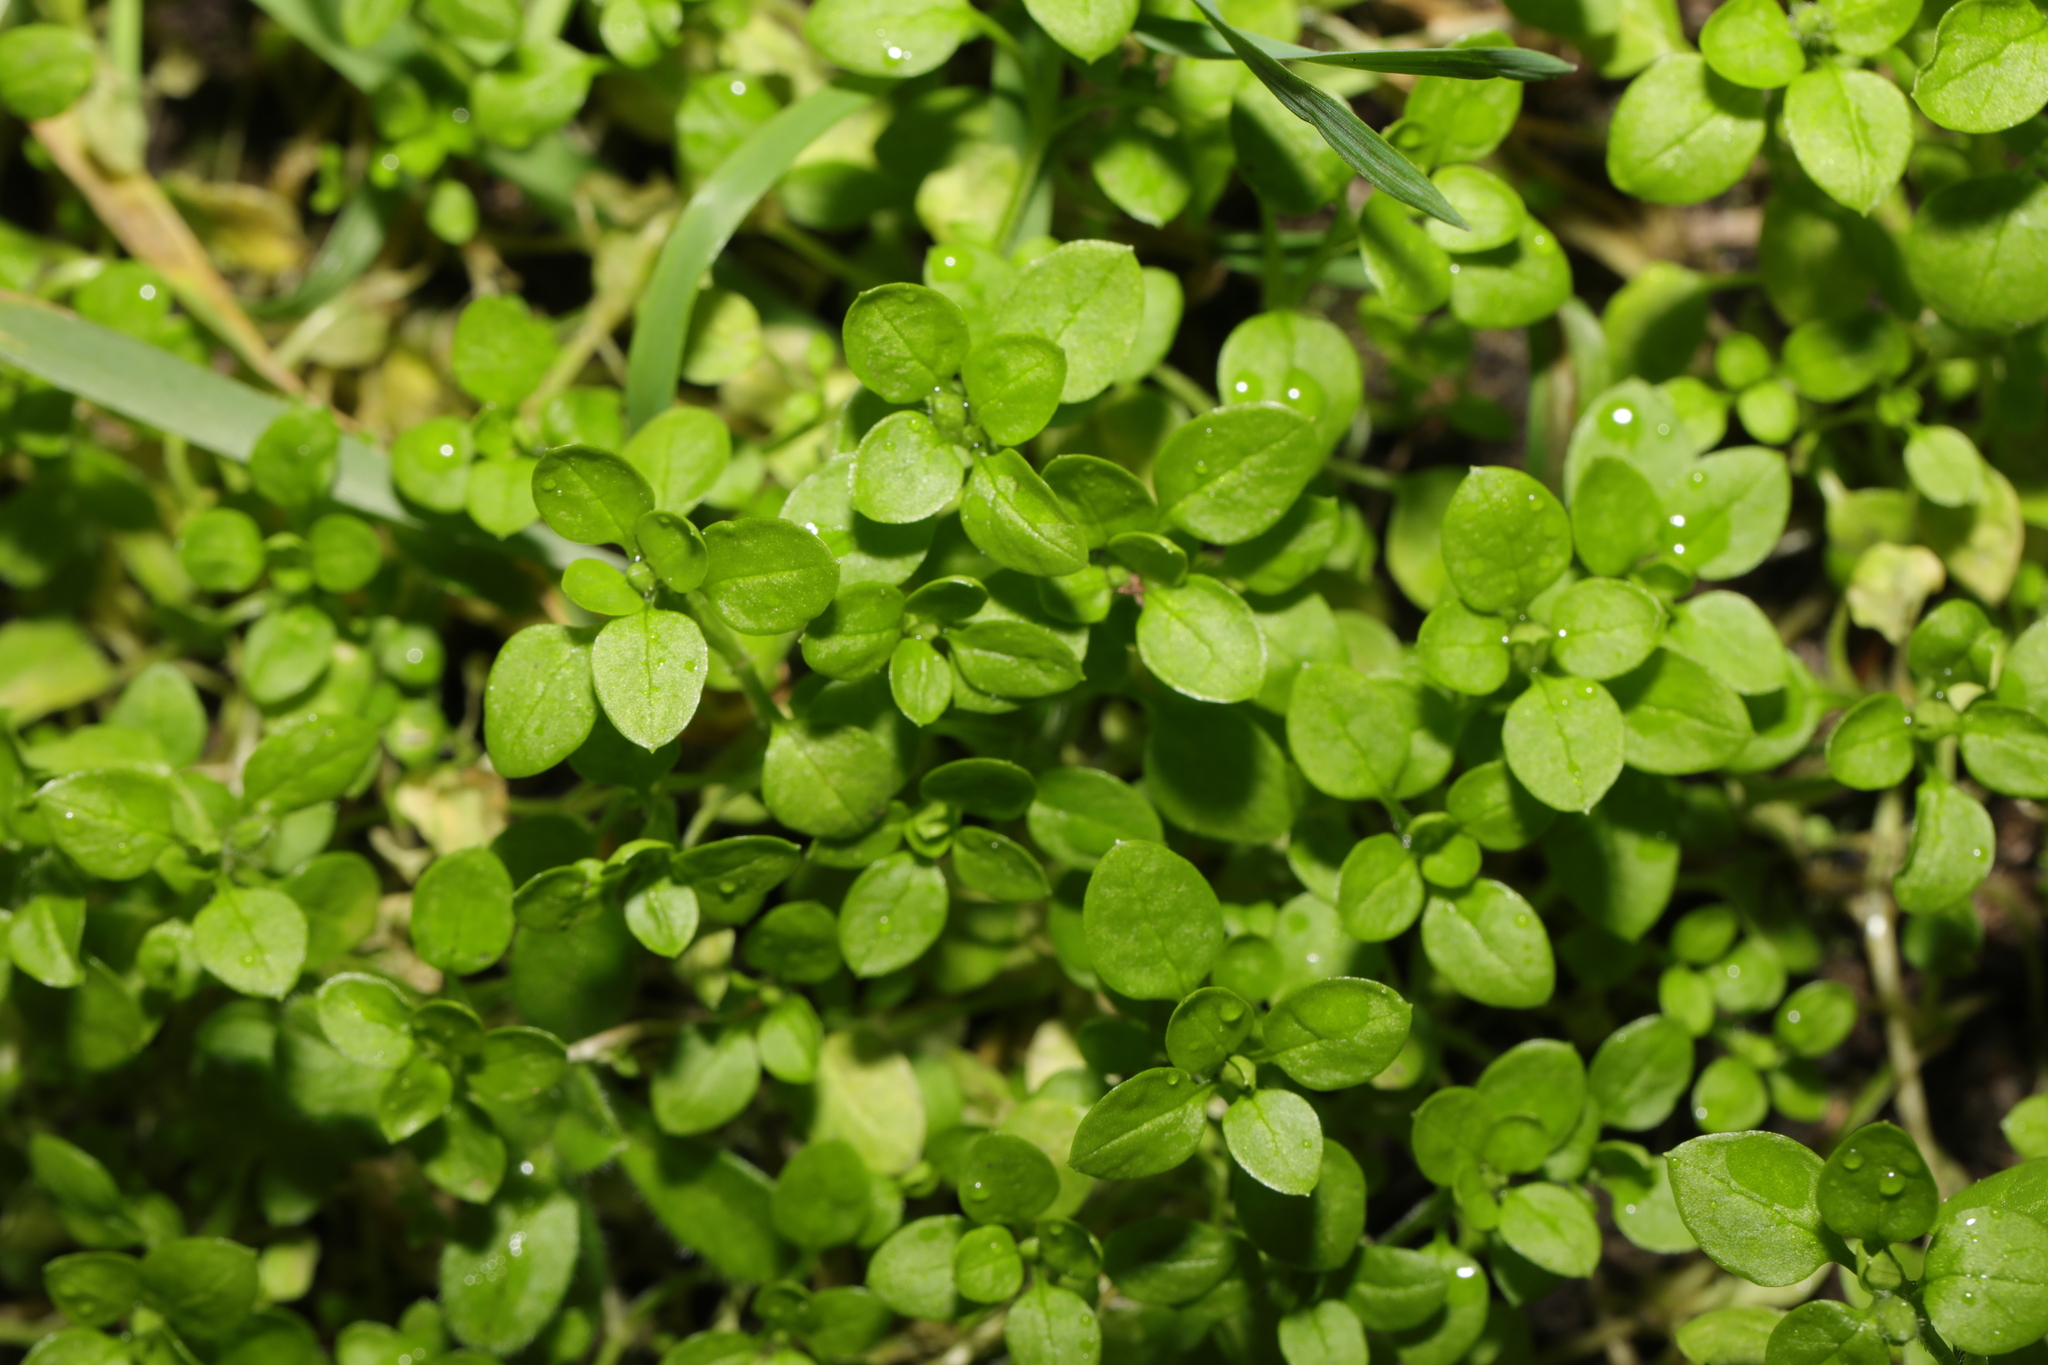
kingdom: Plantae
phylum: Tracheophyta
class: Magnoliopsida
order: Caryophyllales
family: Caryophyllaceae
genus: Stellaria
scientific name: Stellaria media
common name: Common chickweed
